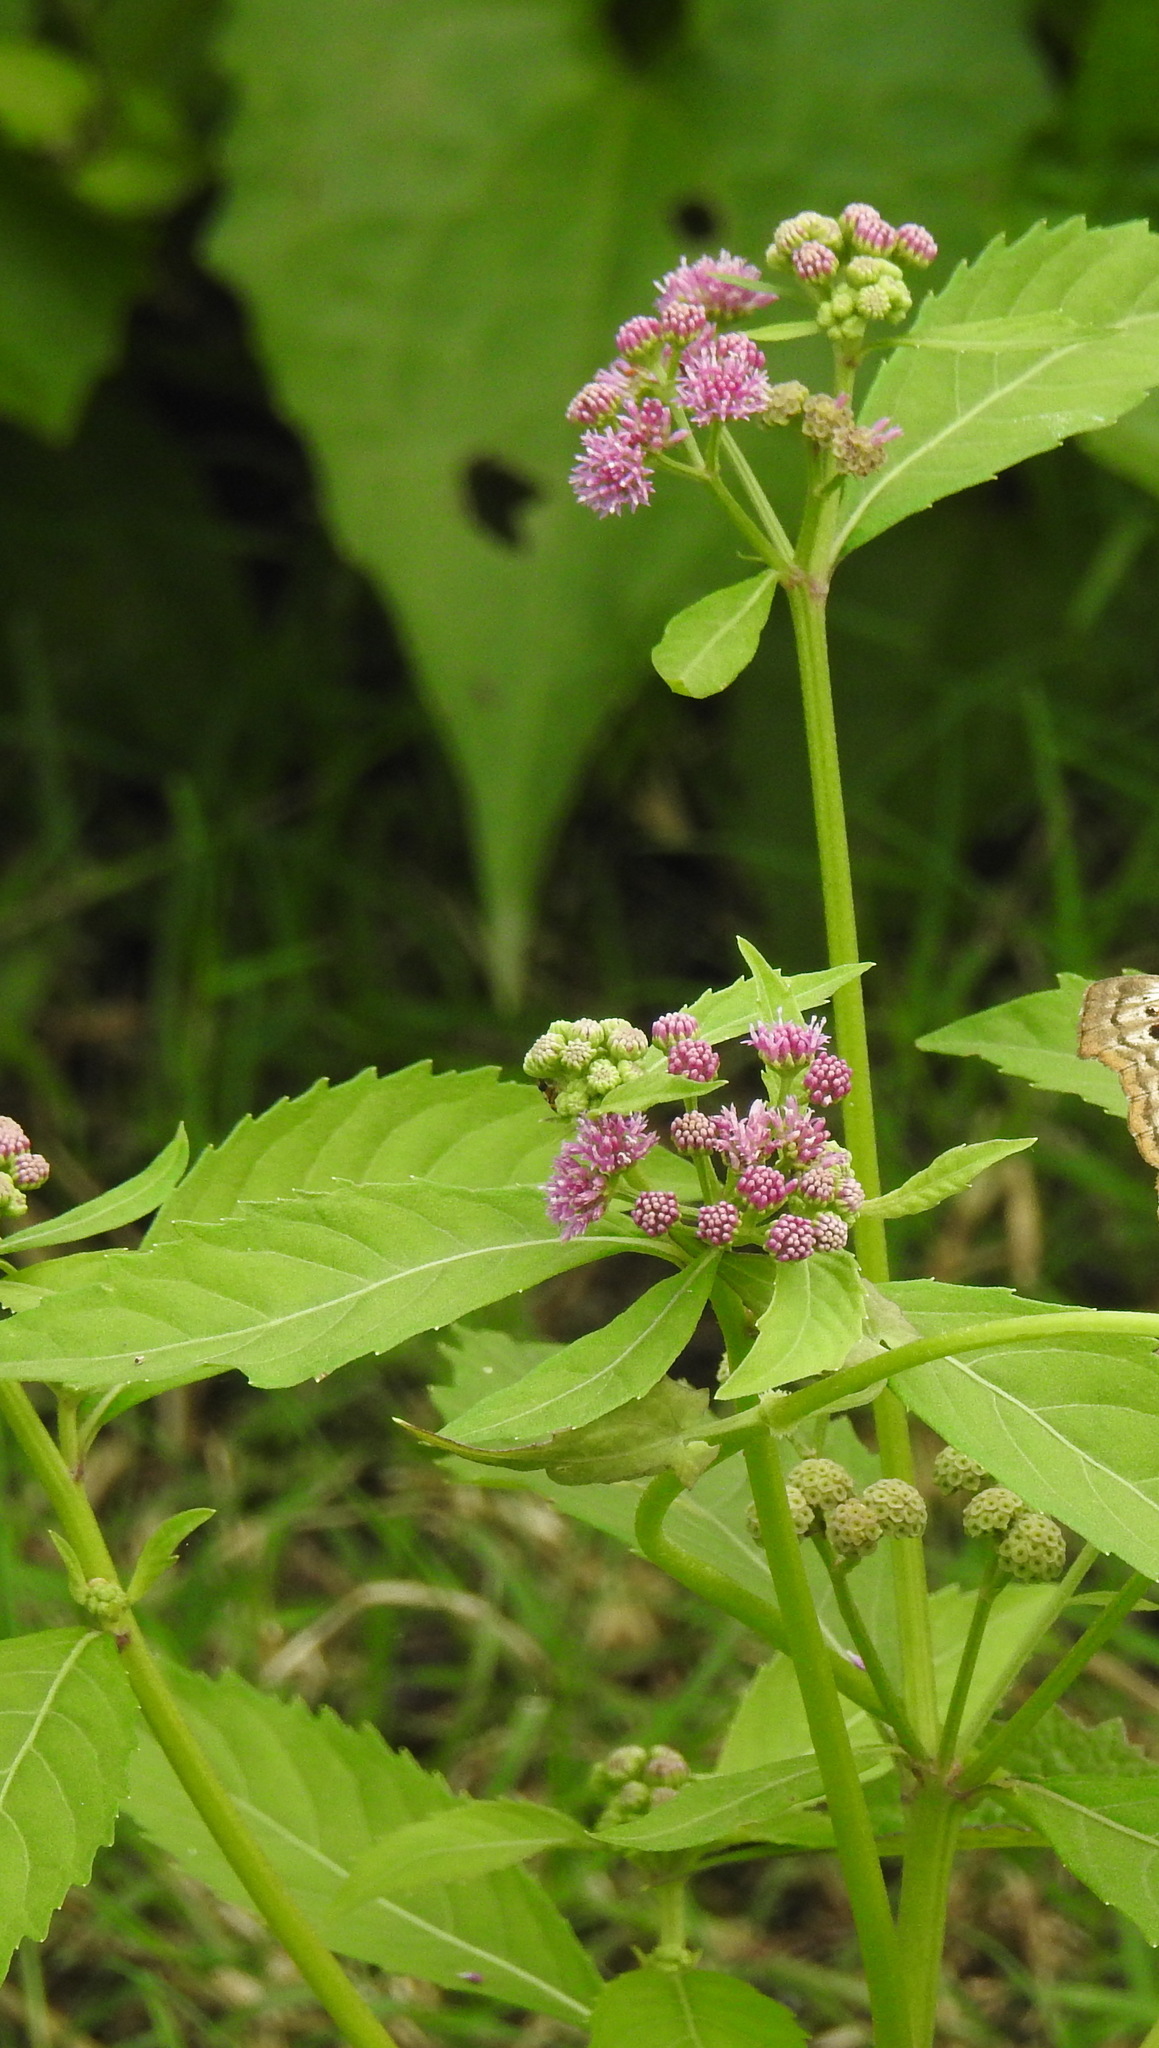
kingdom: Plantae
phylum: Tracheophyta
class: Magnoliopsida
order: Asterales
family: Asteraceae
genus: Cyanthillium
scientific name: Cyanthillium cinereum
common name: Little ironweed
